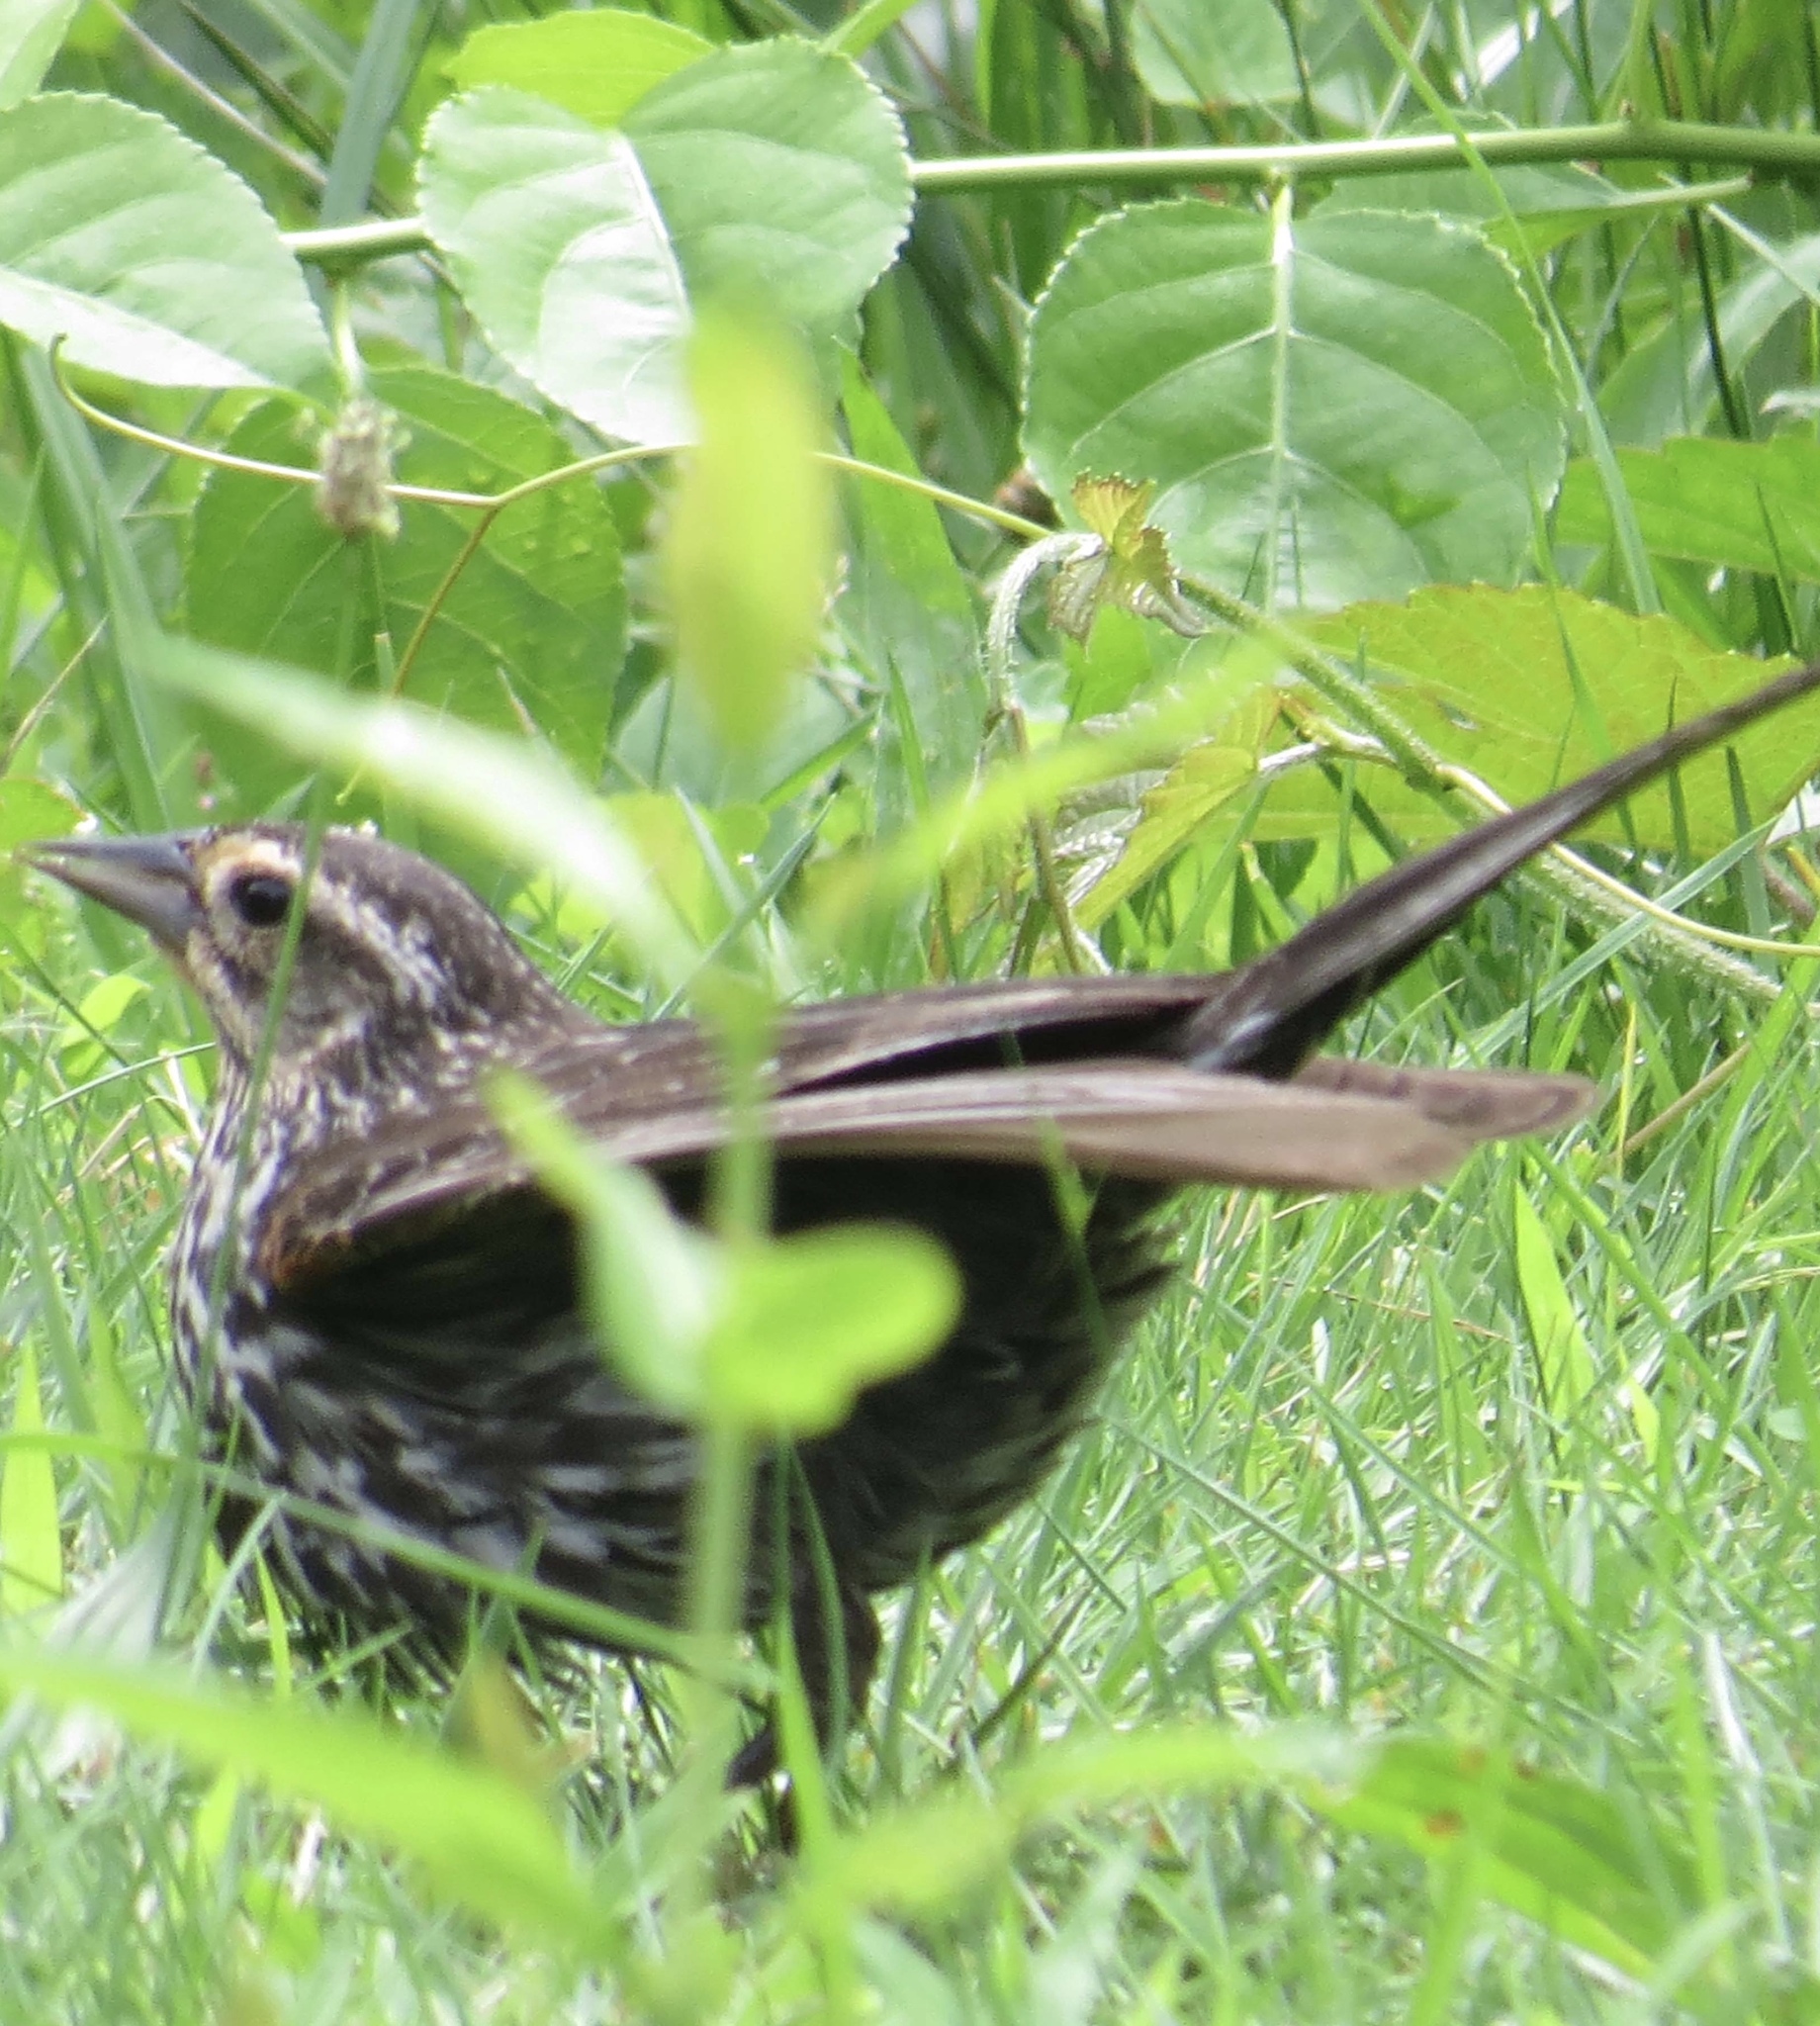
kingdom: Animalia
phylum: Chordata
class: Aves
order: Passeriformes
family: Icteridae
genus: Agelaius
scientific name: Agelaius phoeniceus
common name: Red-winged blackbird
